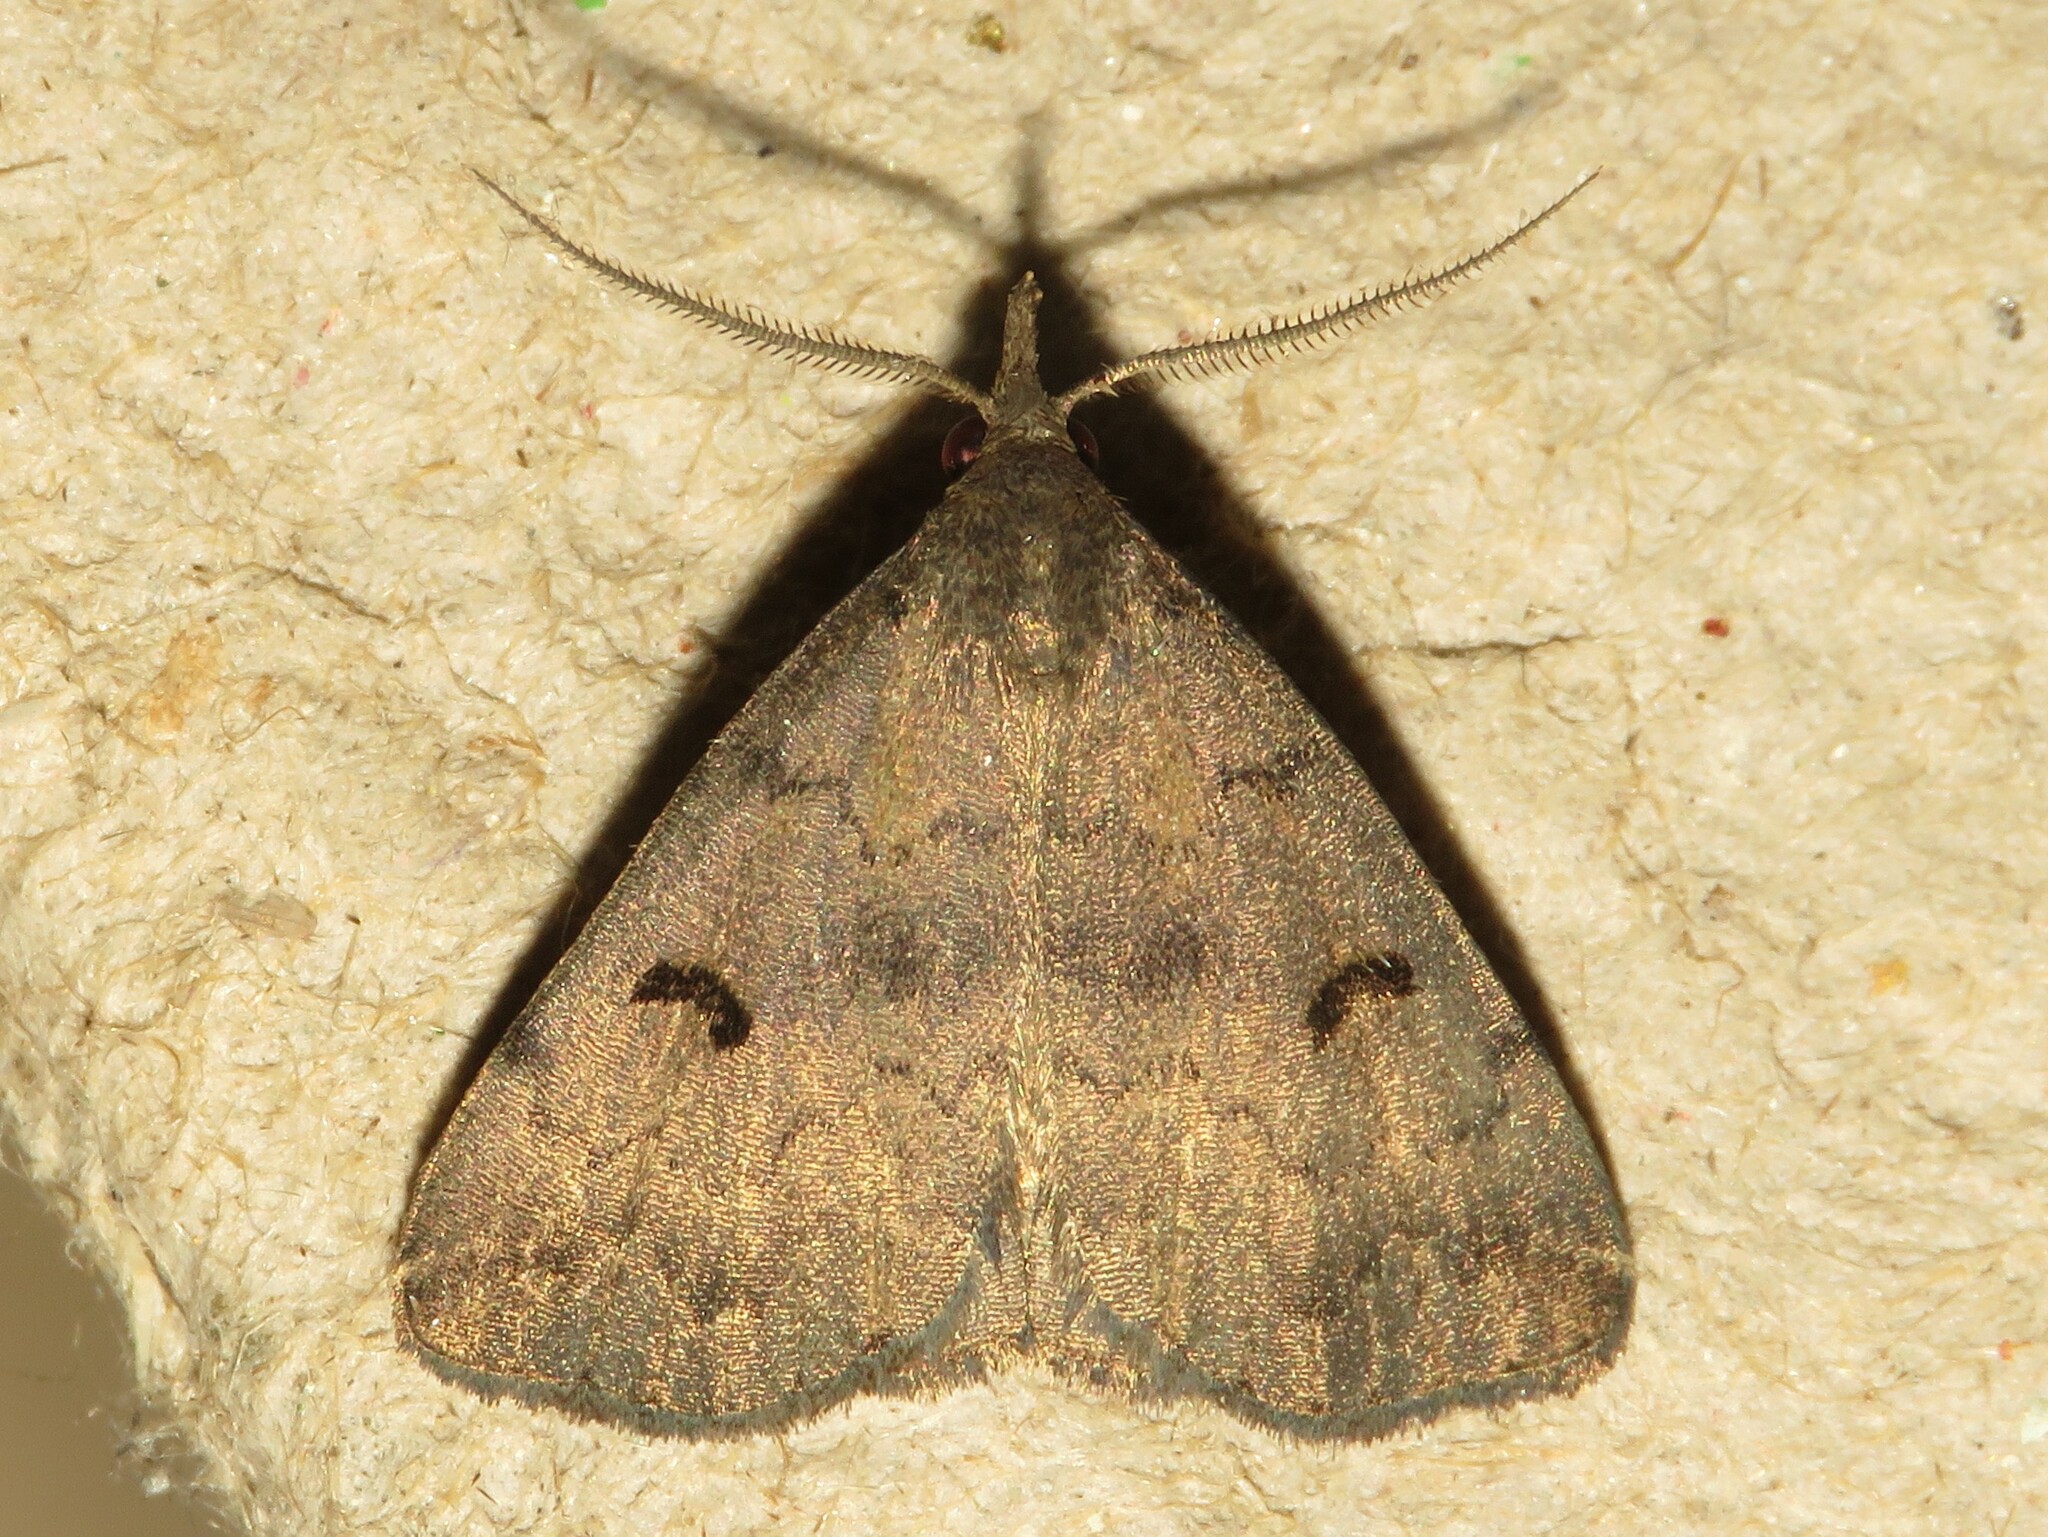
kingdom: Animalia
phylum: Arthropoda
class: Insecta
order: Lepidoptera
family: Erebidae
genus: Phalaenostola
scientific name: Phalaenostola hanhami
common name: Hanham's owlet
